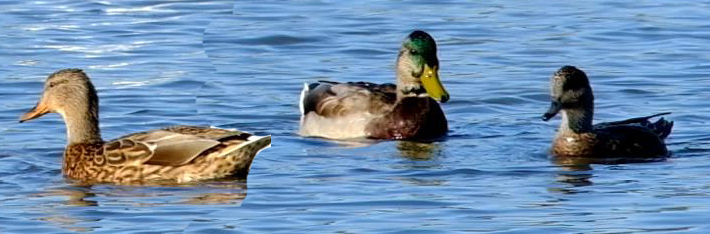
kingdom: Animalia
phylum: Chordata
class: Aves
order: Anseriformes
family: Anatidae
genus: Anas
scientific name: Anas platyrhynchos
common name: Mallard
